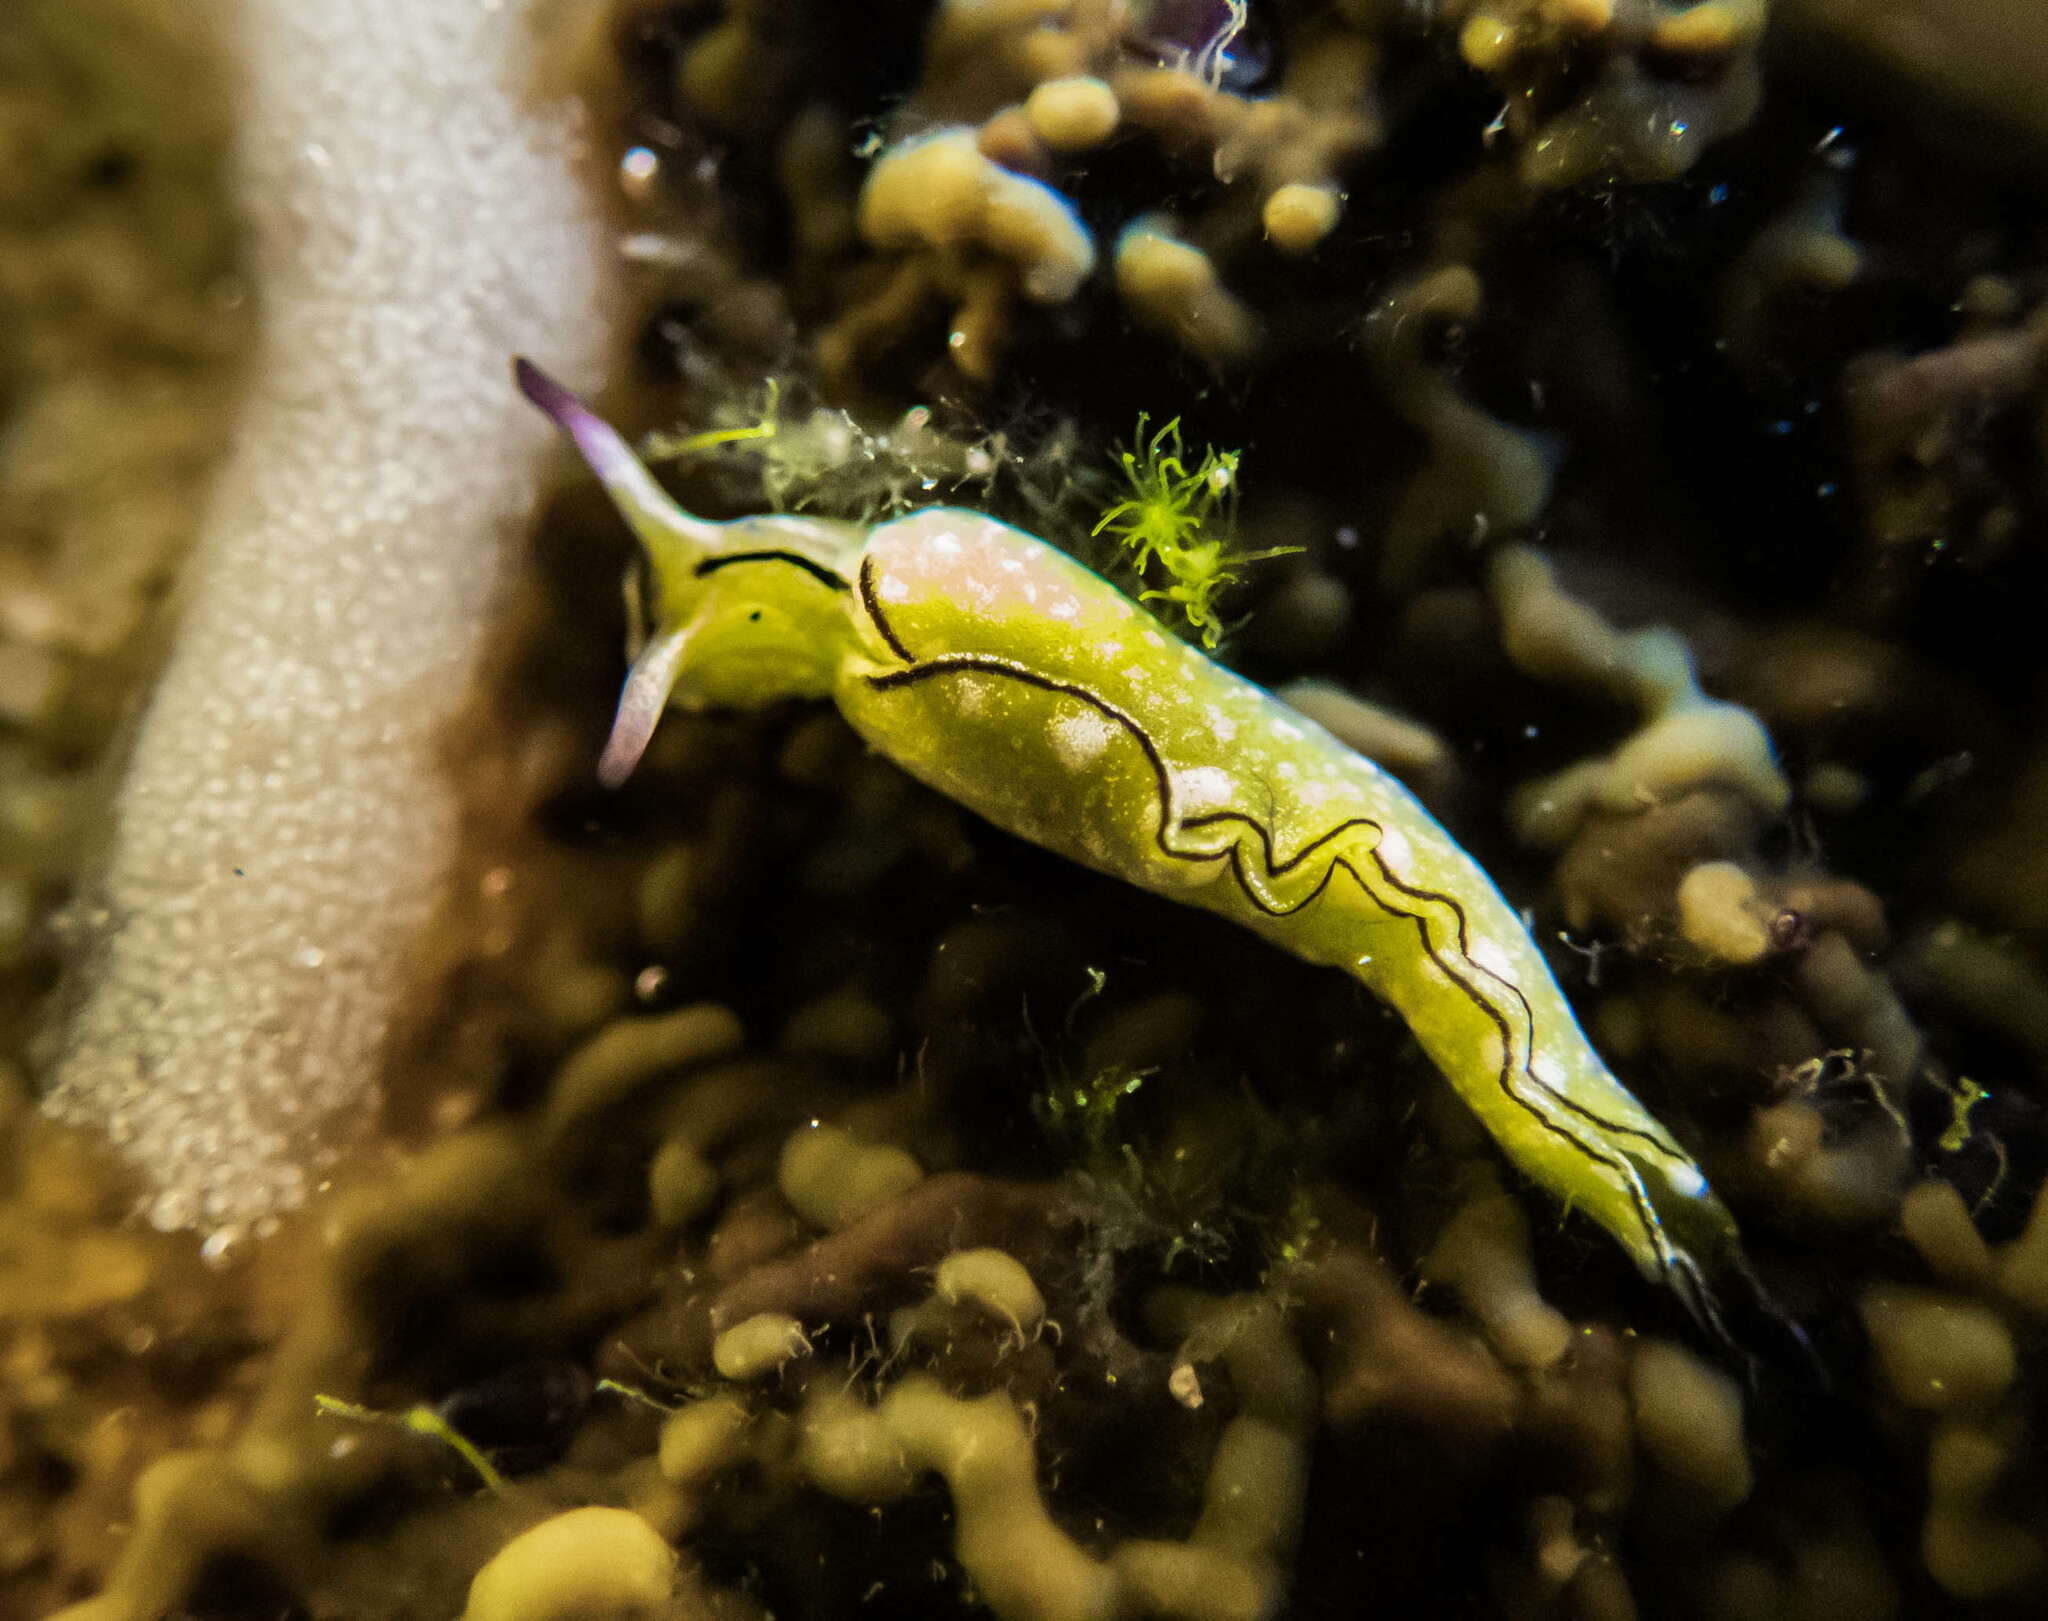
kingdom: Animalia
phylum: Mollusca
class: Gastropoda
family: Plakobranchidae
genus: Elysia
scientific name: Elysia coodgeensis
